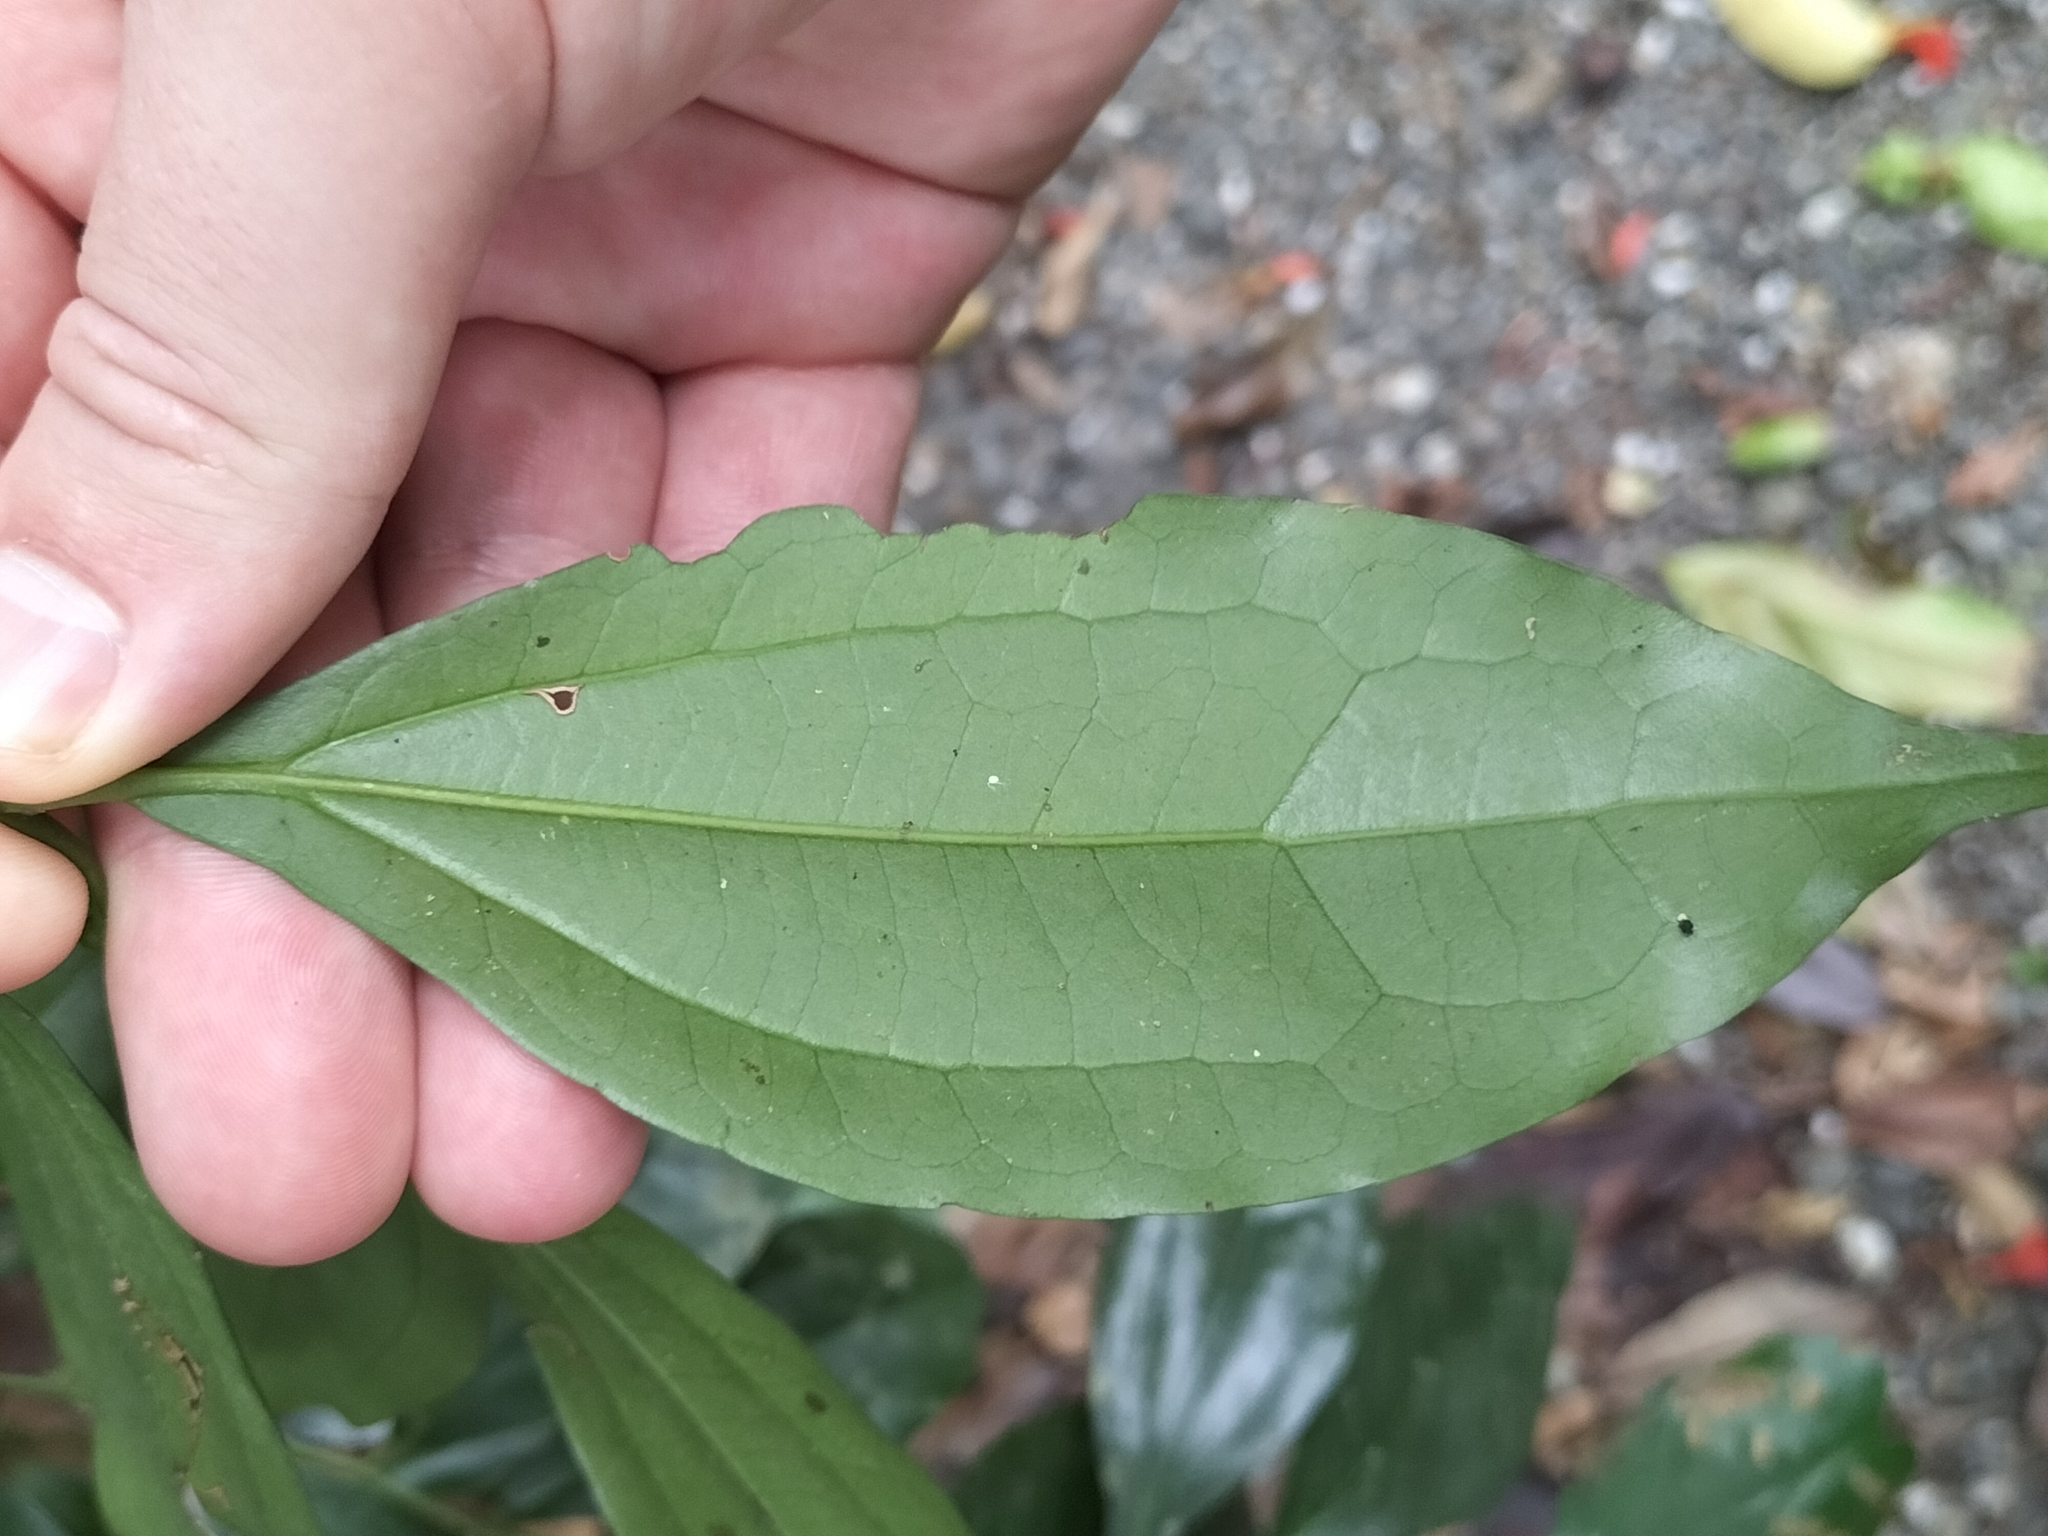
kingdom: Plantae
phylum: Tracheophyta
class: Magnoliopsida
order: Laurales
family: Lauraceae
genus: Cryptocarya
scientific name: Cryptocarya laevigata
